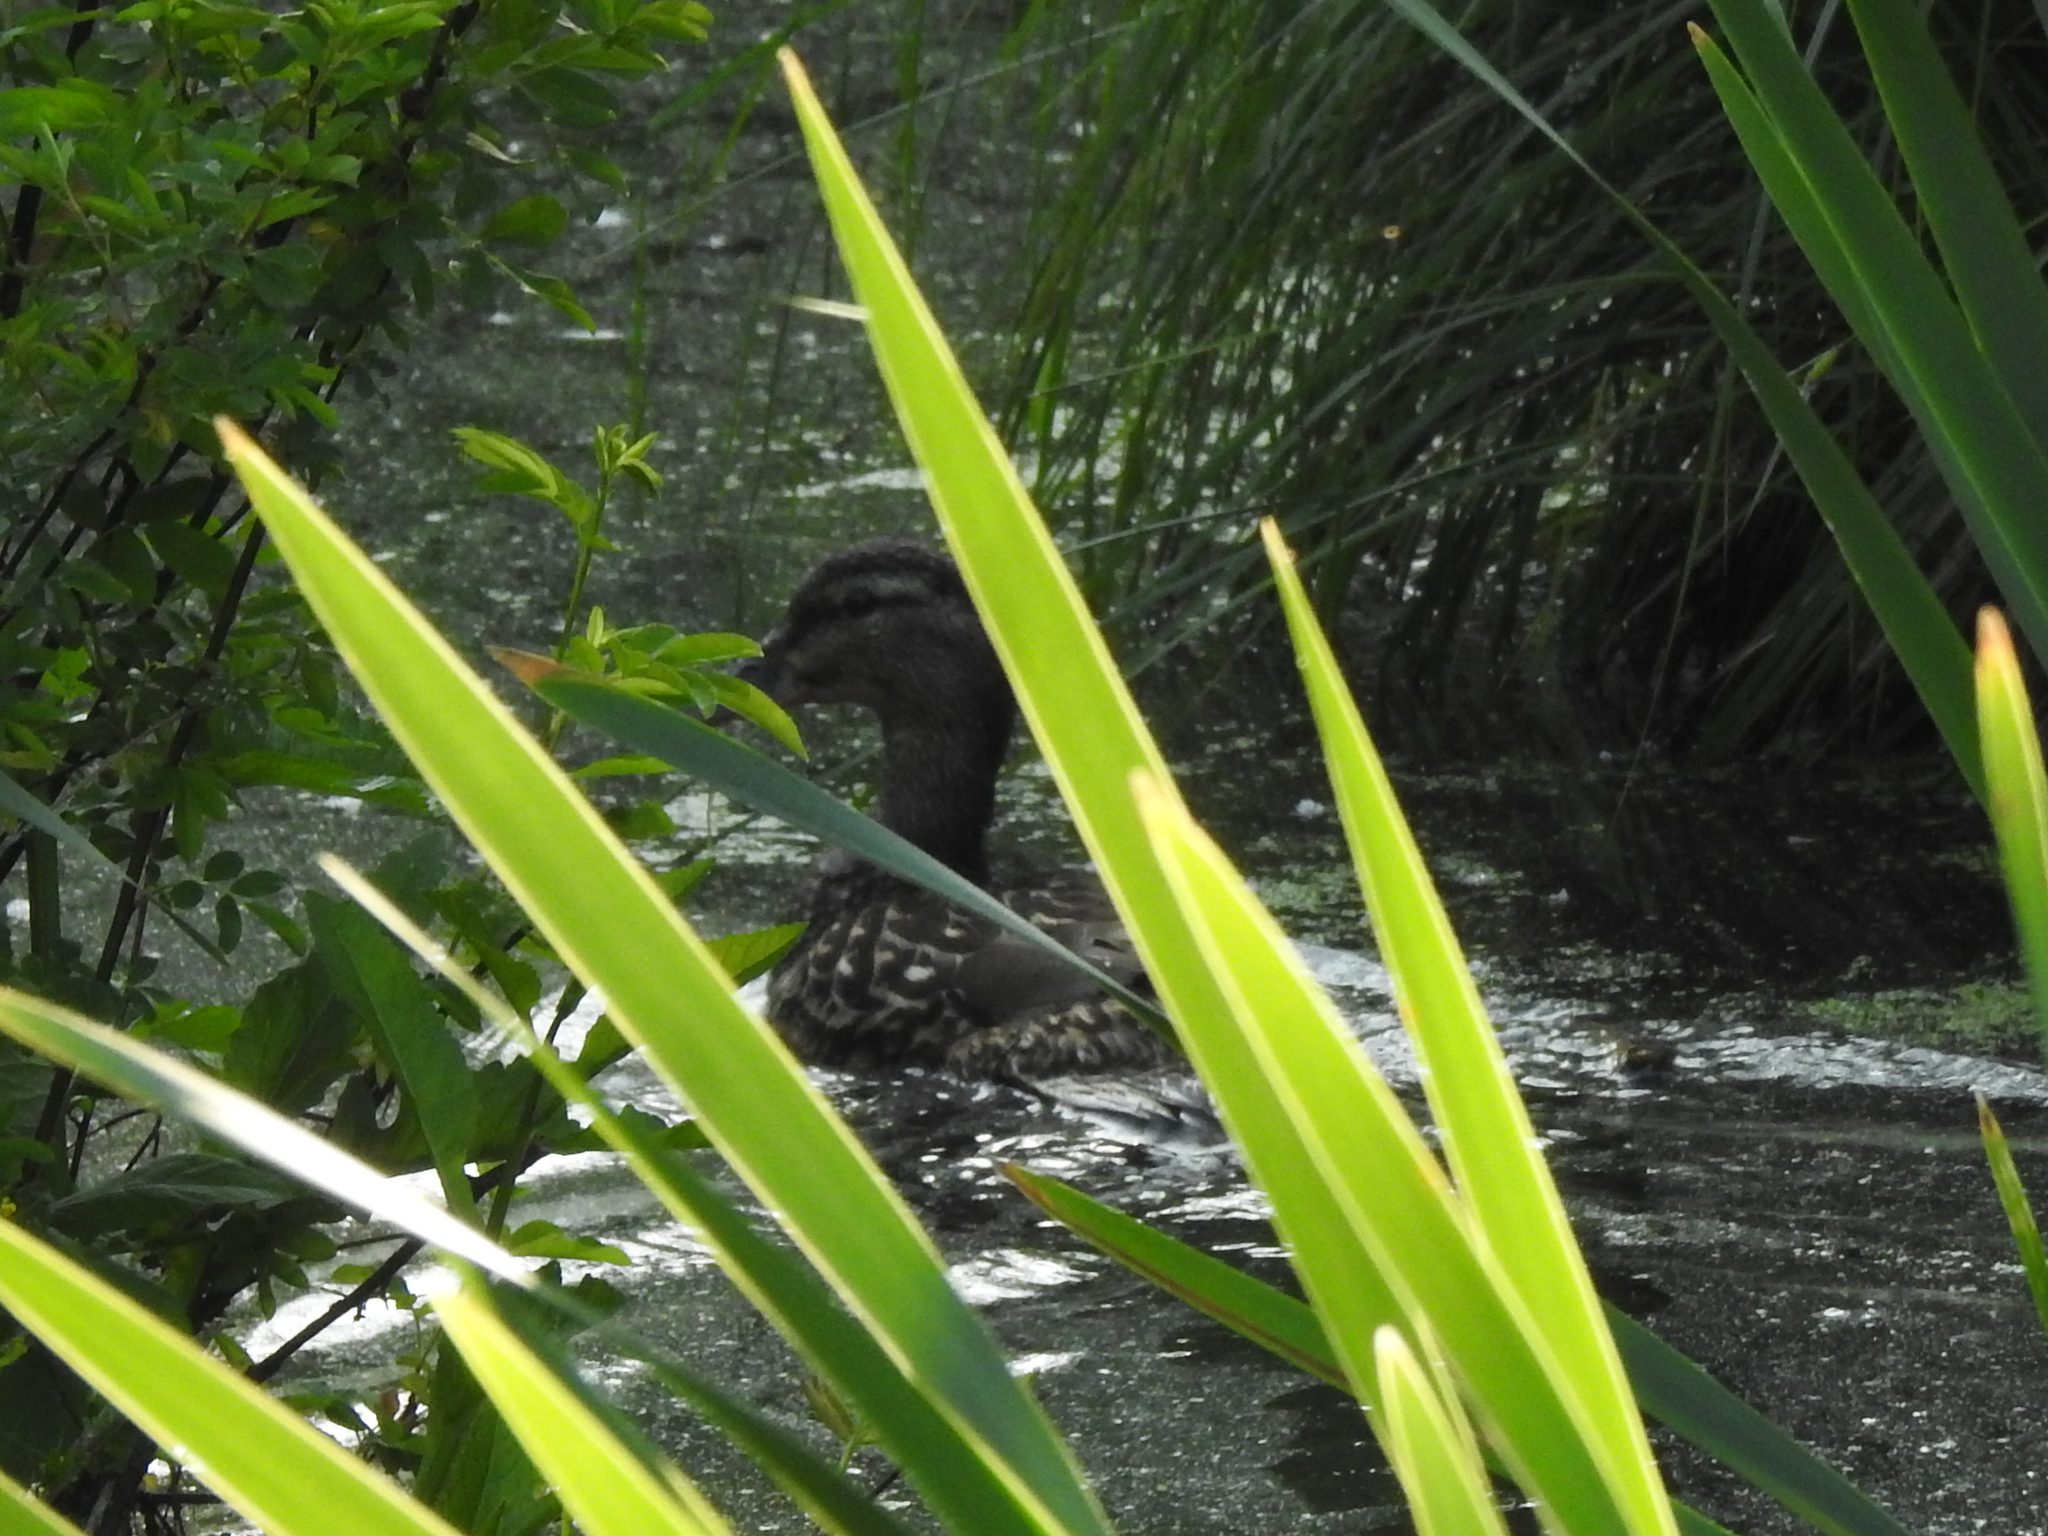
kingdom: Animalia
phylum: Chordata
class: Aves
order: Anseriformes
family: Anatidae
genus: Anas
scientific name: Anas platyrhynchos
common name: Mallard
